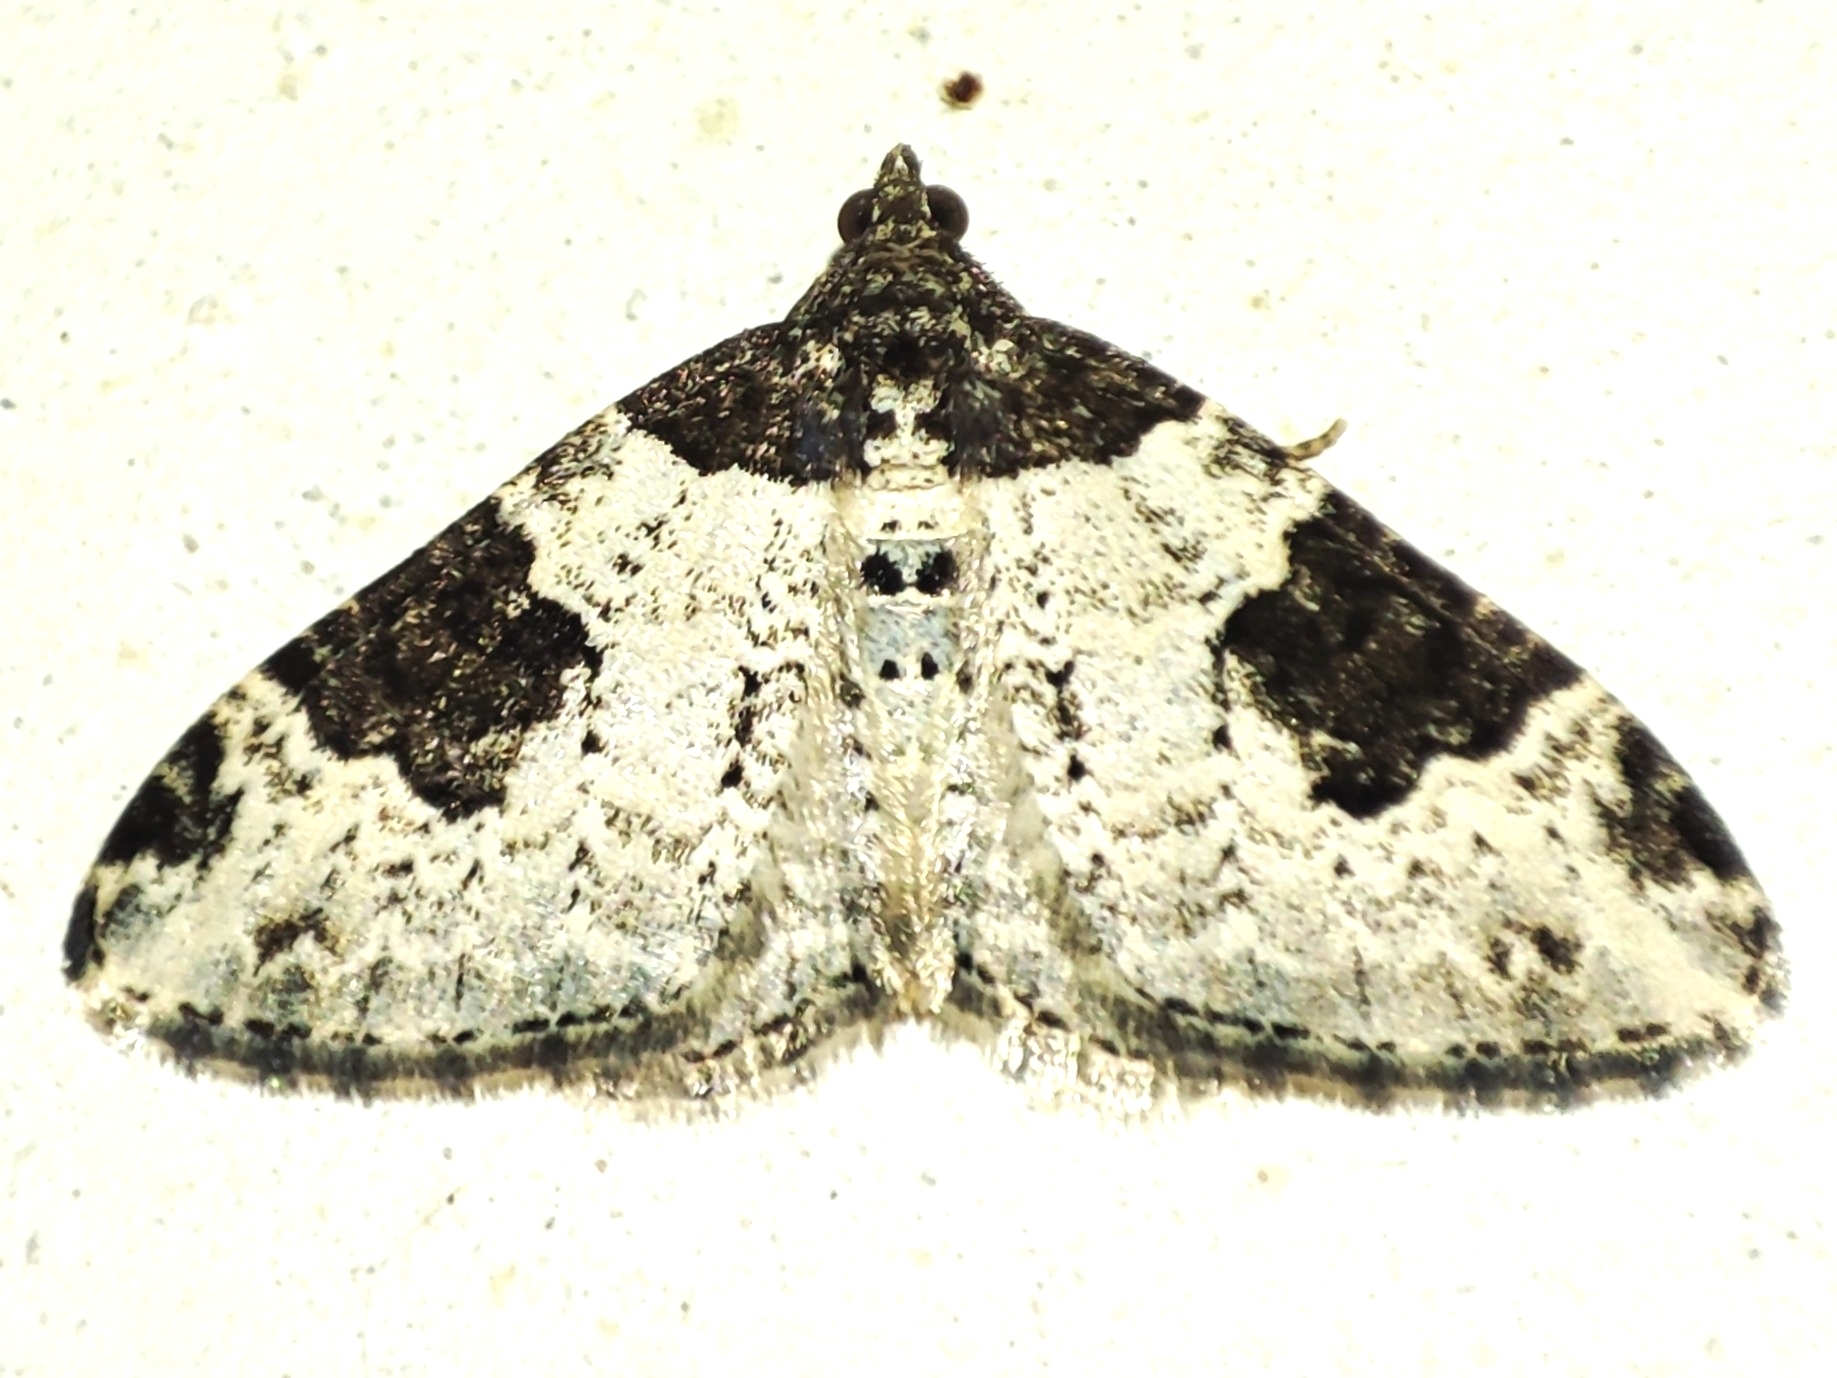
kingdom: Animalia
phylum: Arthropoda
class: Insecta
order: Lepidoptera
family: Geometridae
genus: Xanthorhoe
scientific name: Xanthorhoe fluctuata
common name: Garden carpet
